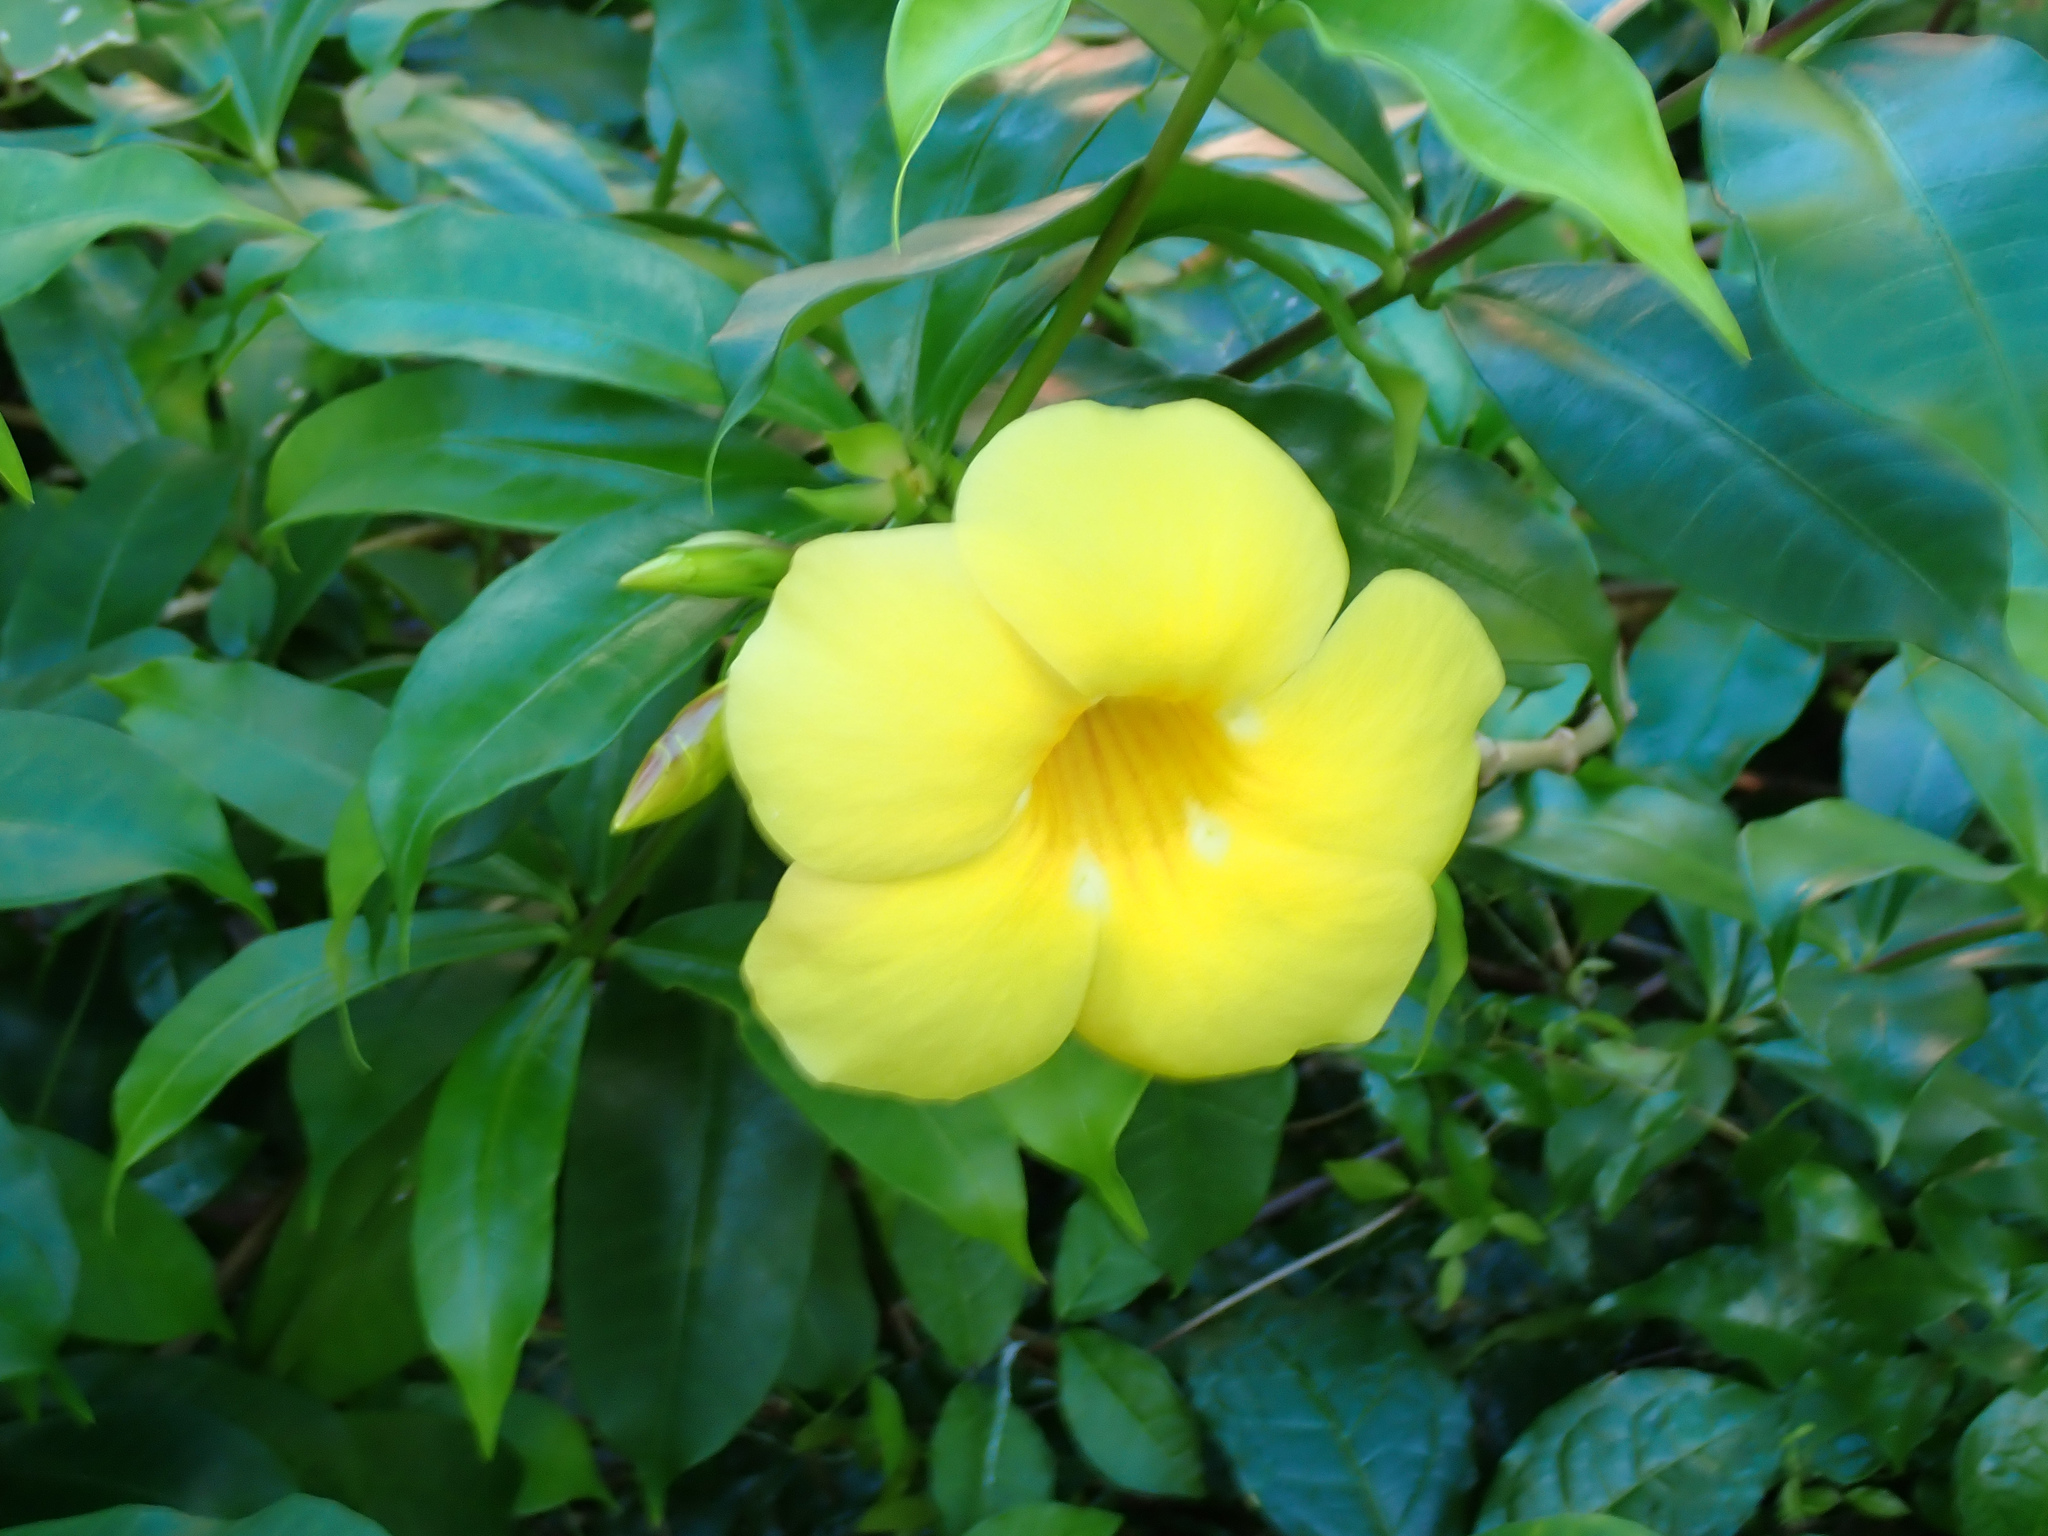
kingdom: Plantae
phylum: Tracheophyta
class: Magnoliopsida
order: Gentianales
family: Apocynaceae
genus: Allamanda
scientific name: Allamanda cathartica
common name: Golden trumpet
